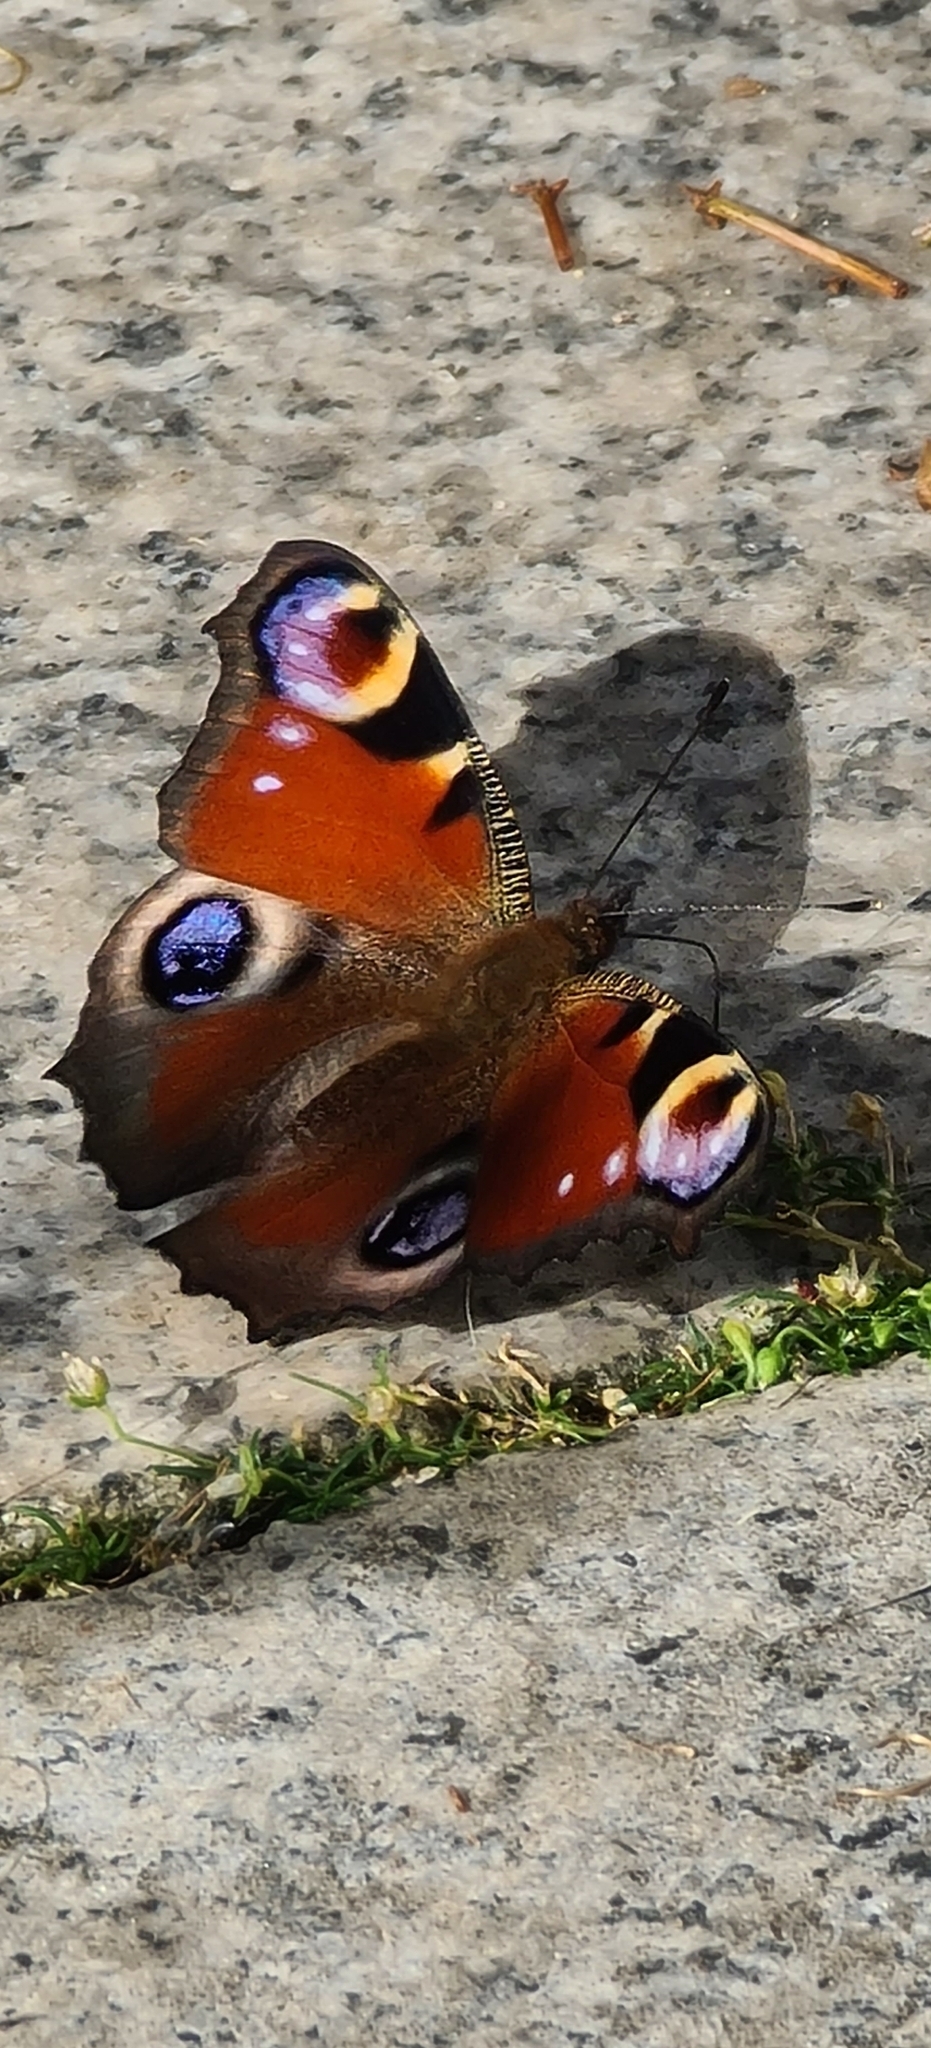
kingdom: Animalia
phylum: Arthropoda
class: Insecta
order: Lepidoptera
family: Nymphalidae
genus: Aglais
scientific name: Aglais io
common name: Peacock
